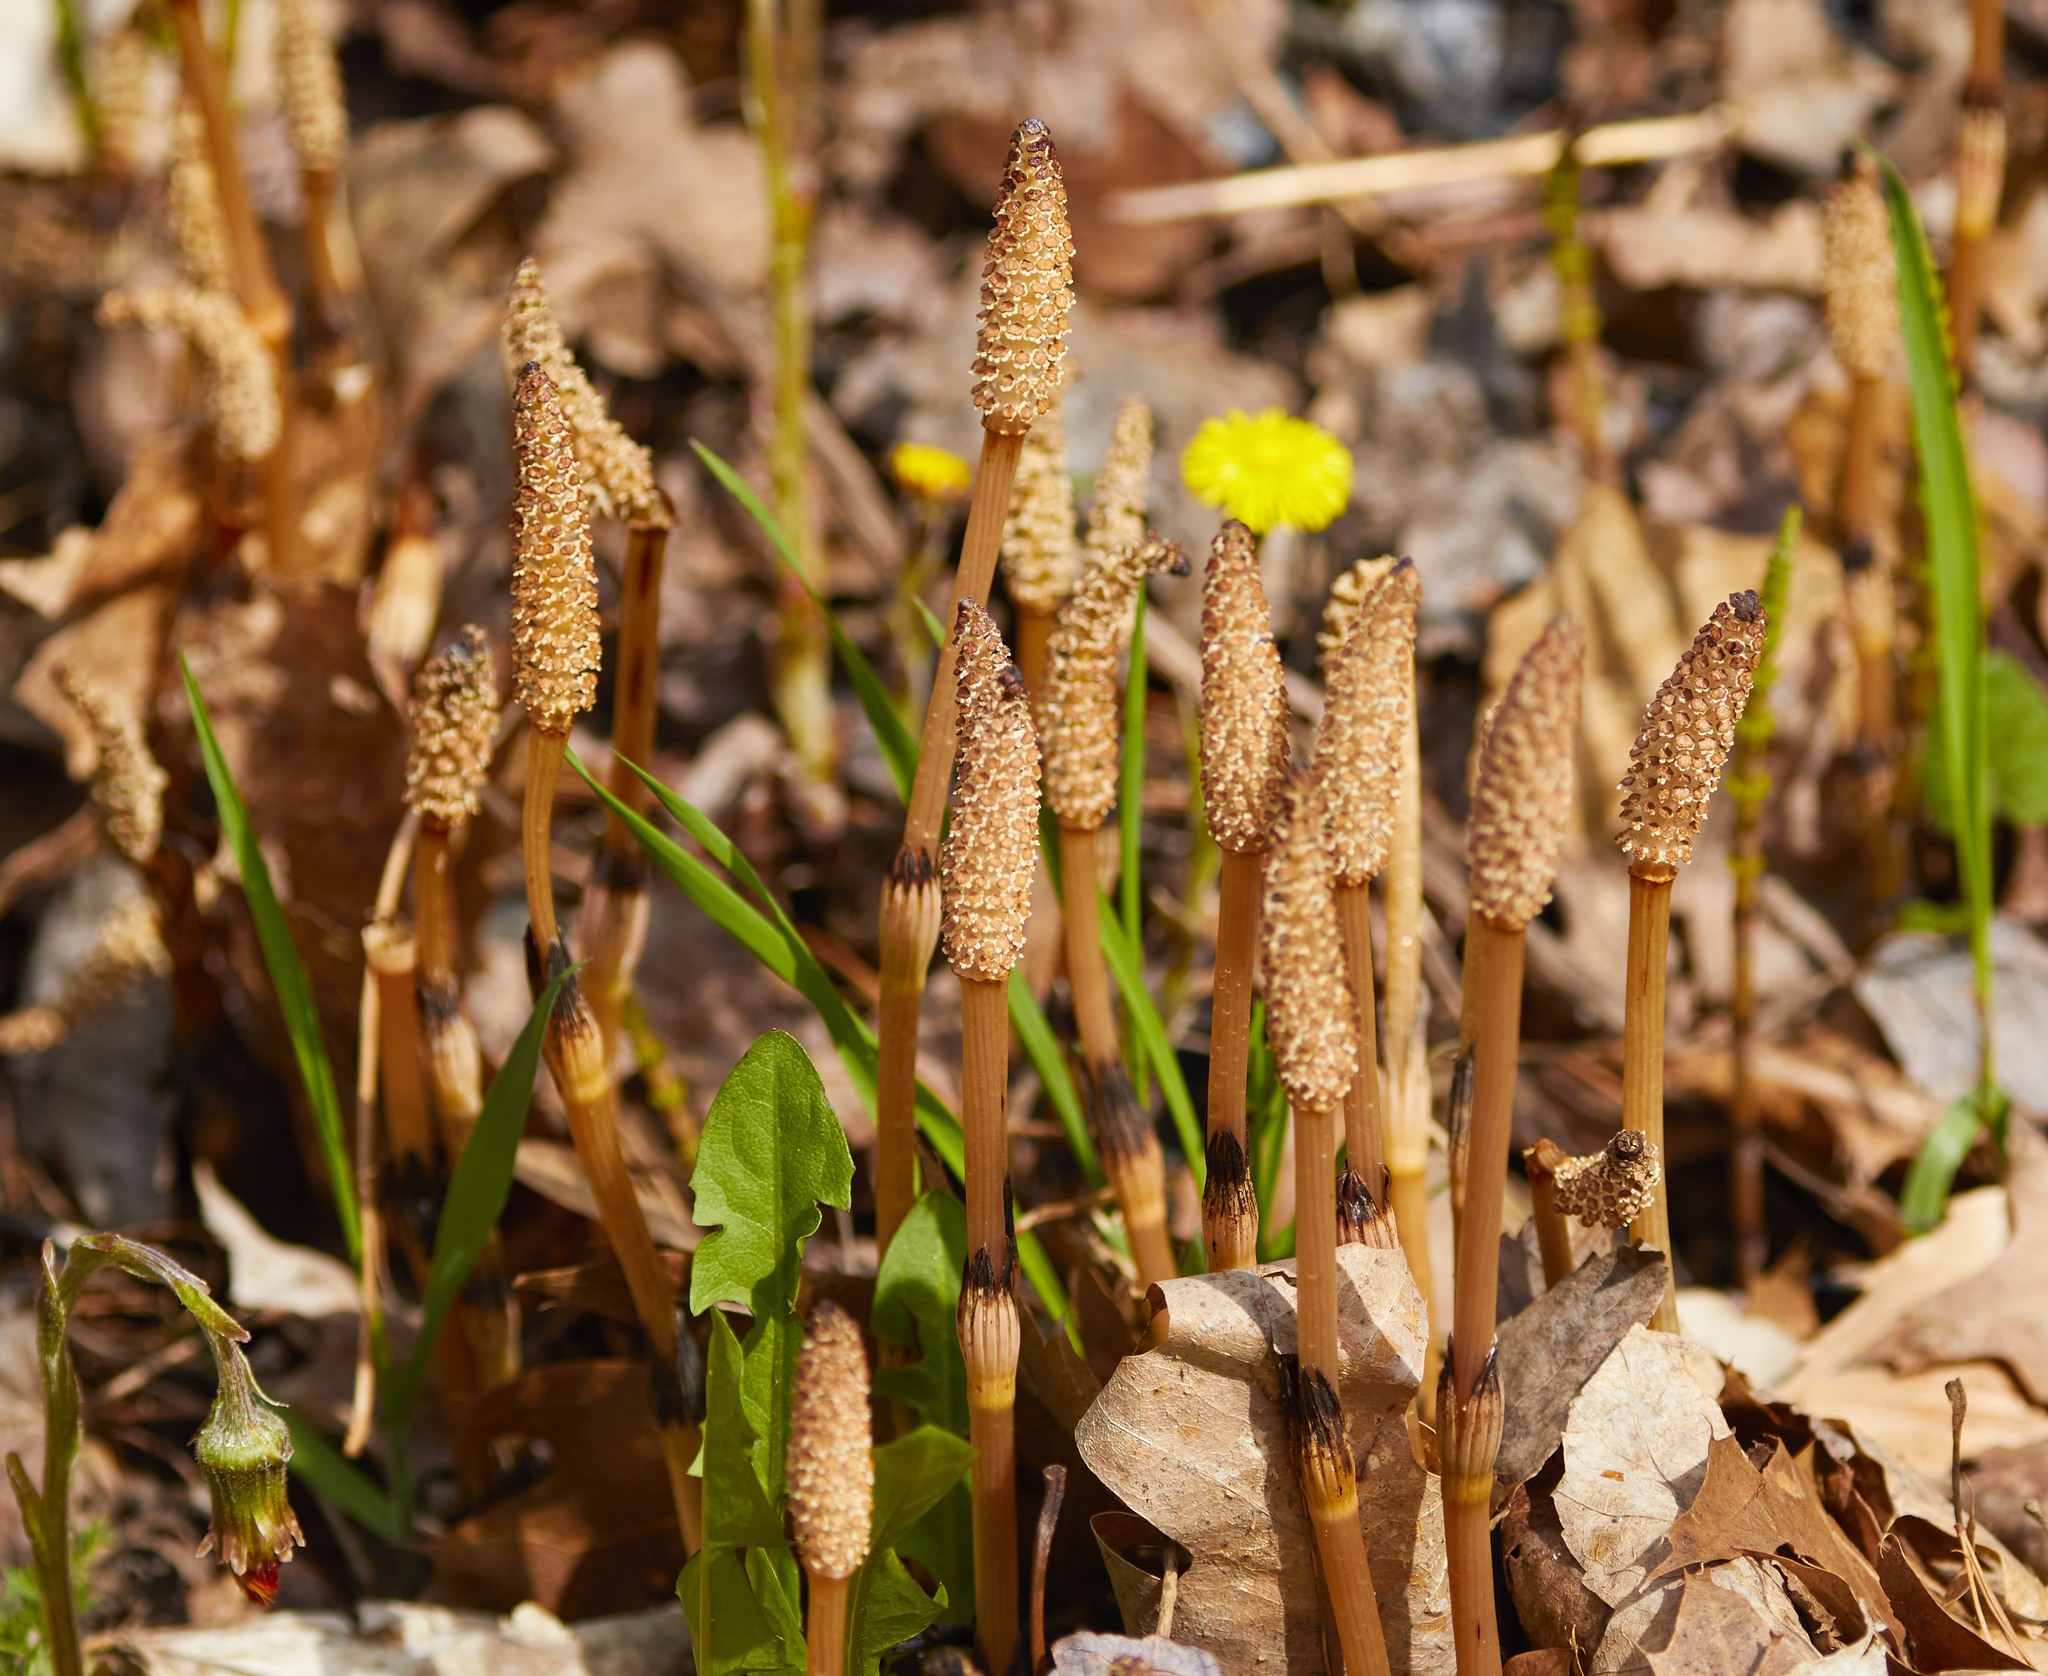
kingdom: Plantae
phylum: Tracheophyta
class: Polypodiopsida
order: Equisetales
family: Equisetaceae
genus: Equisetum
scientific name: Equisetum arvense
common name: Field horsetail
